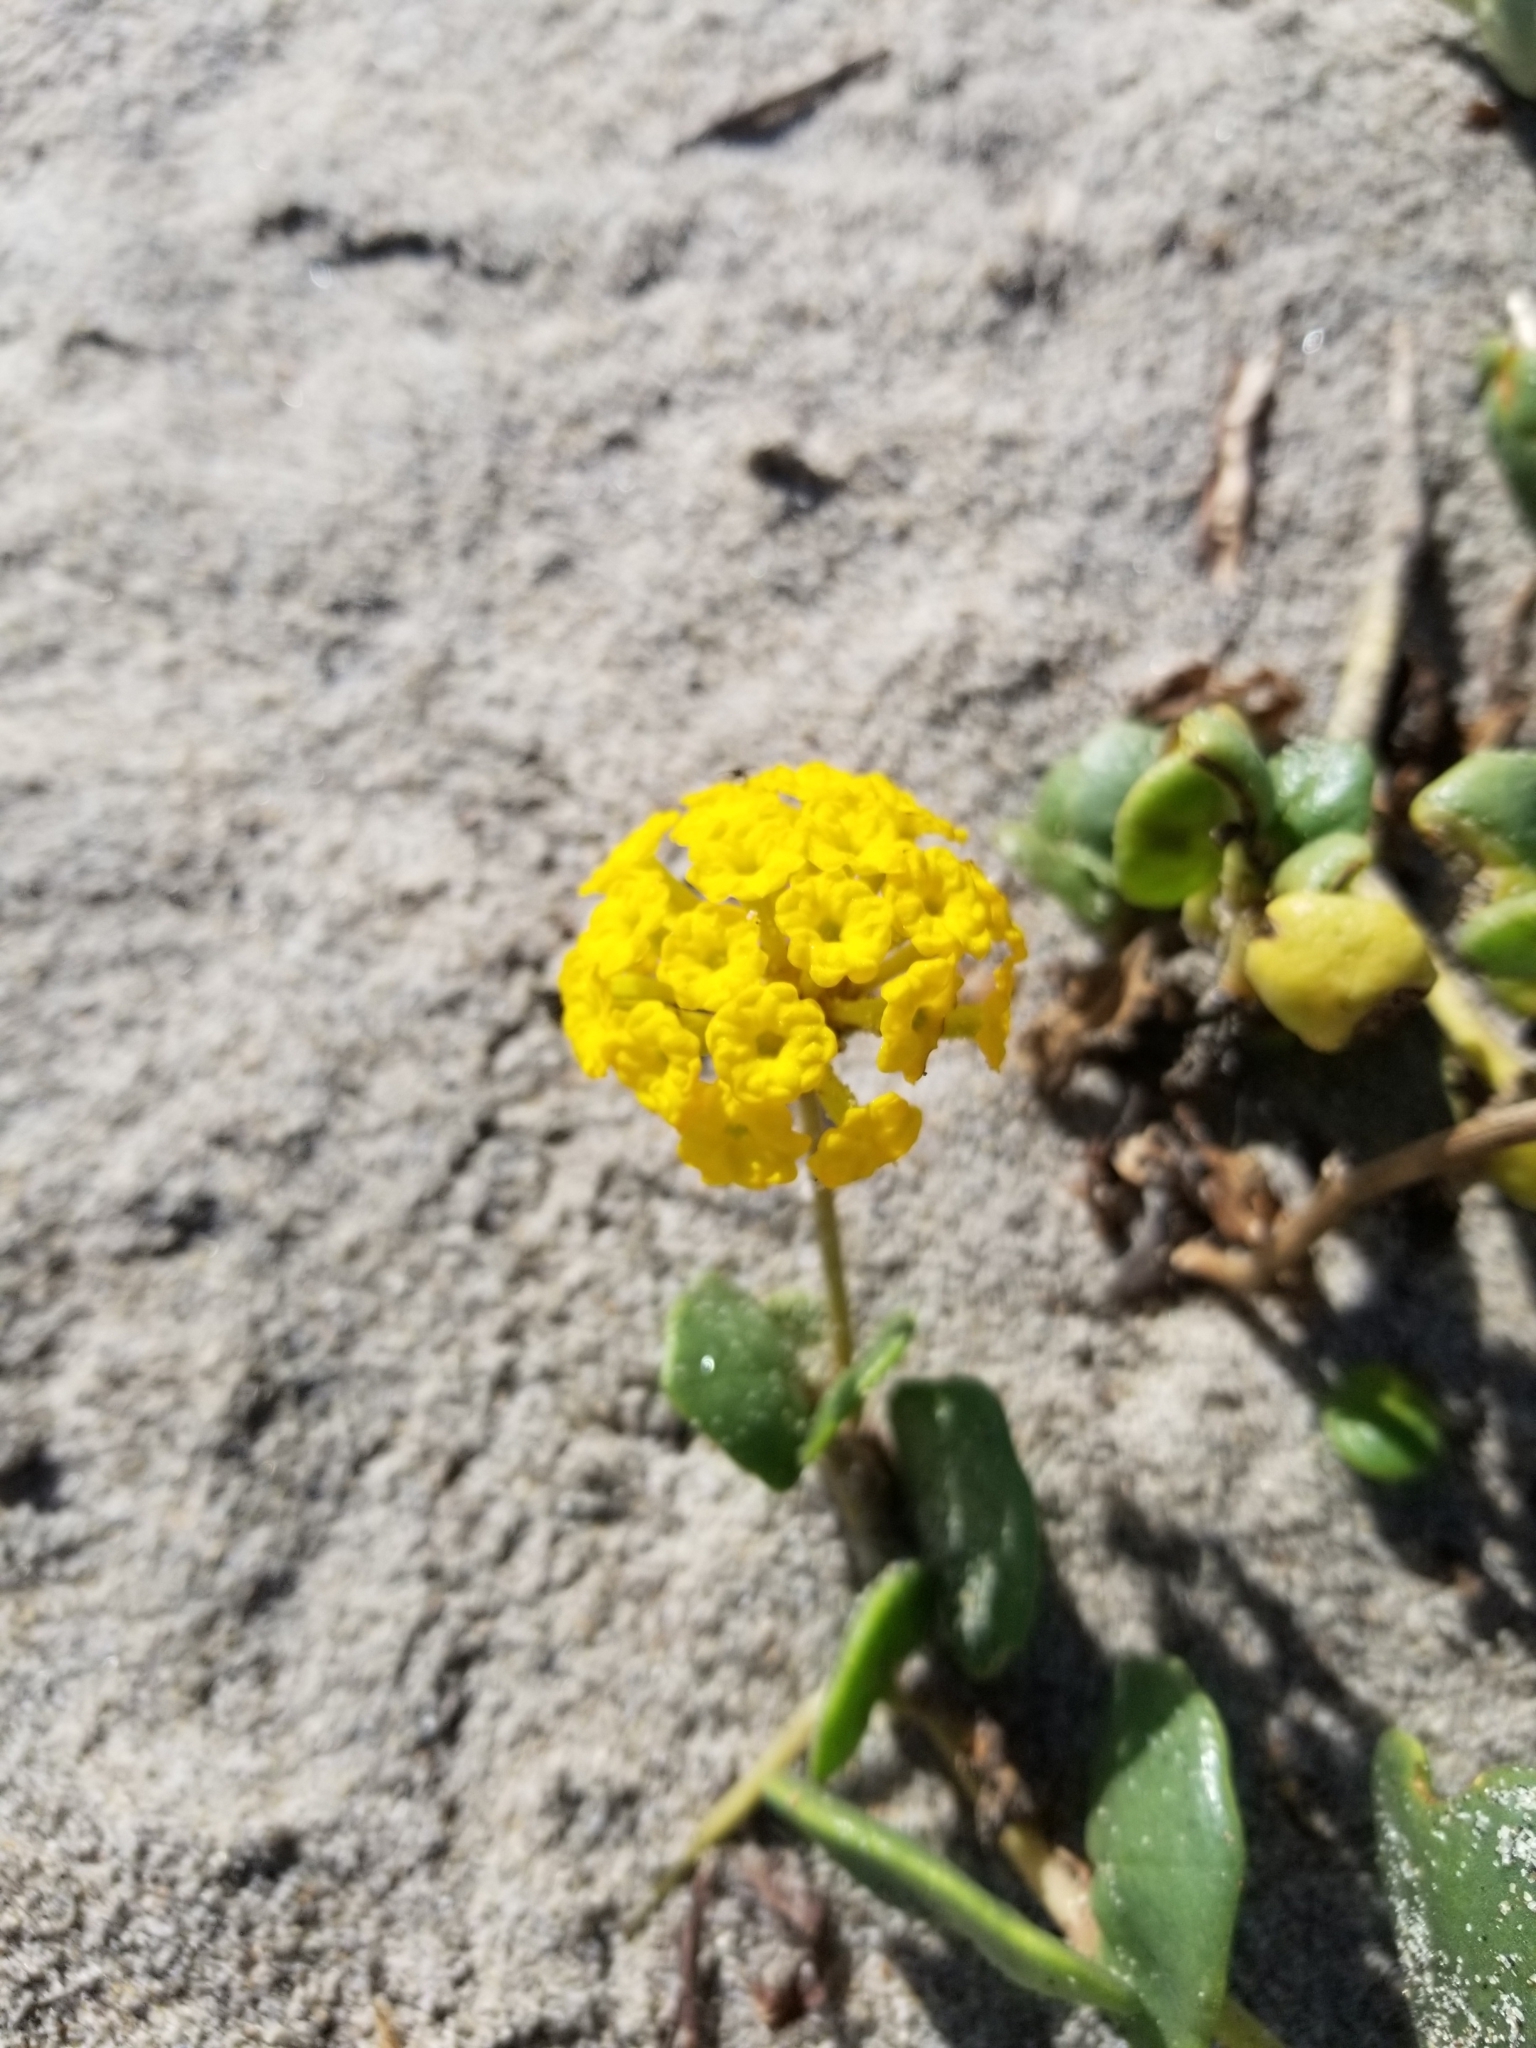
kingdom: Plantae
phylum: Tracheophyta
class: Magnoliopsida
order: Caryophyllales
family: Nyctaginaceae
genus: Abronia
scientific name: Abronia latifolia
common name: Yellow sand-verbena
